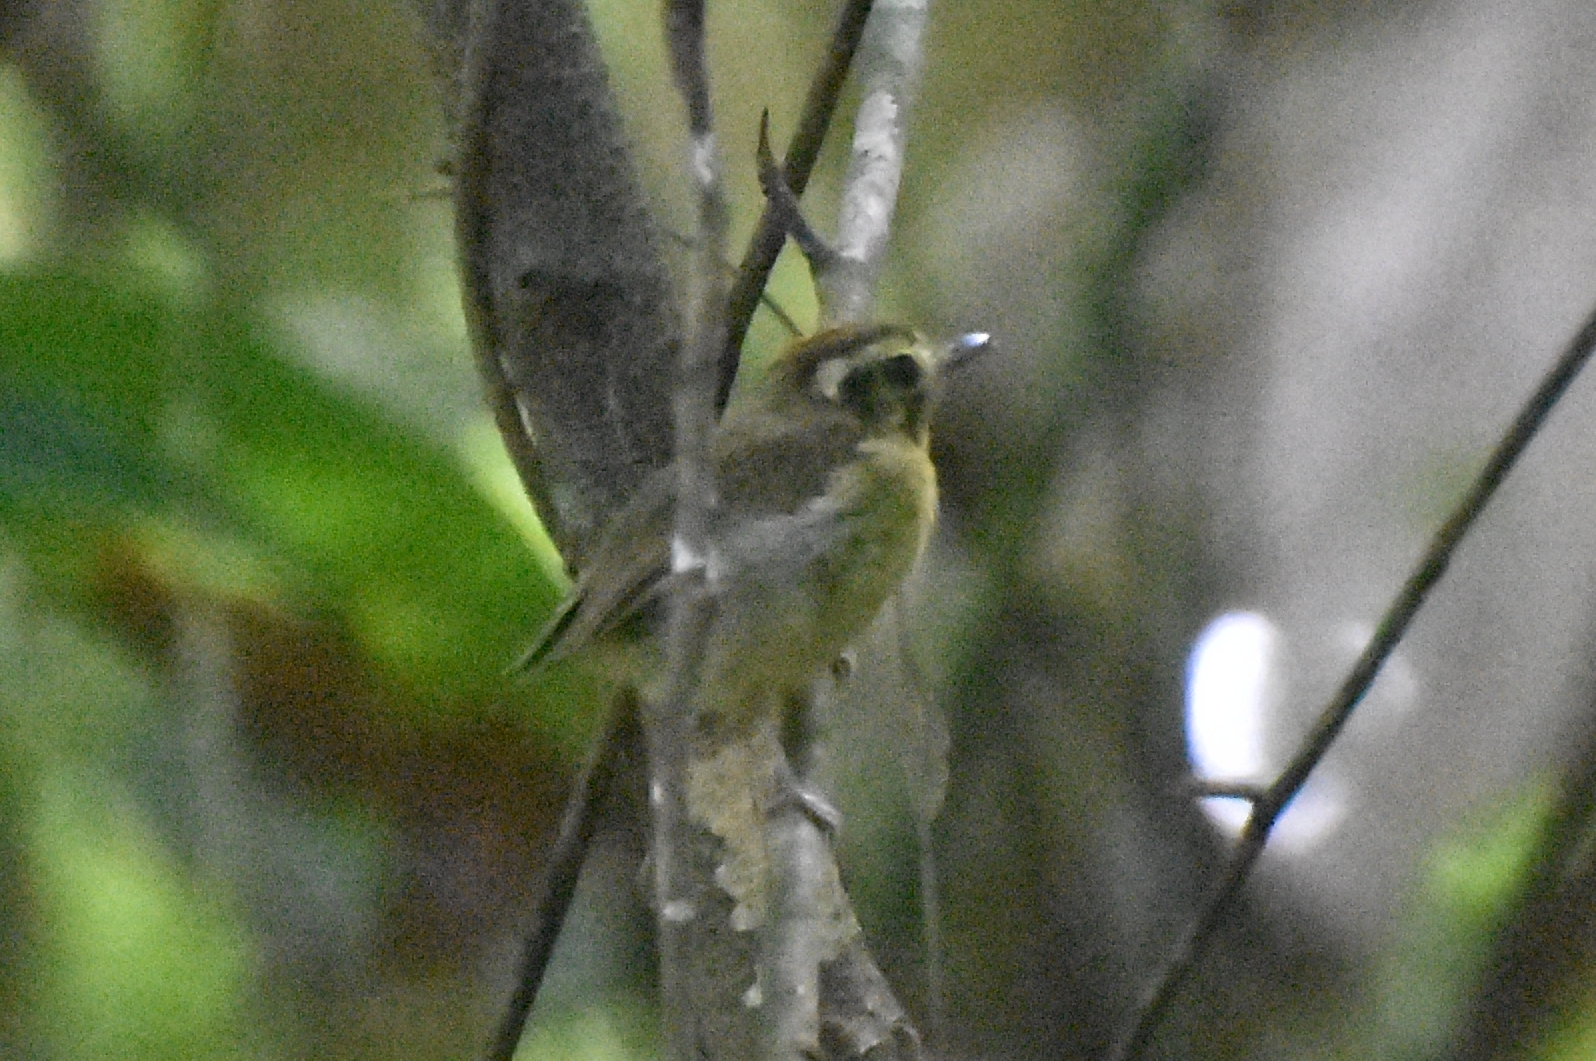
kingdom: Animalia
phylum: Chordata
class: Aves
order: Passeriformes
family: Tyrannidae
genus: Platyrinchus
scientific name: Platyrinchus coronatus
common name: Golden-crowned spadebill
